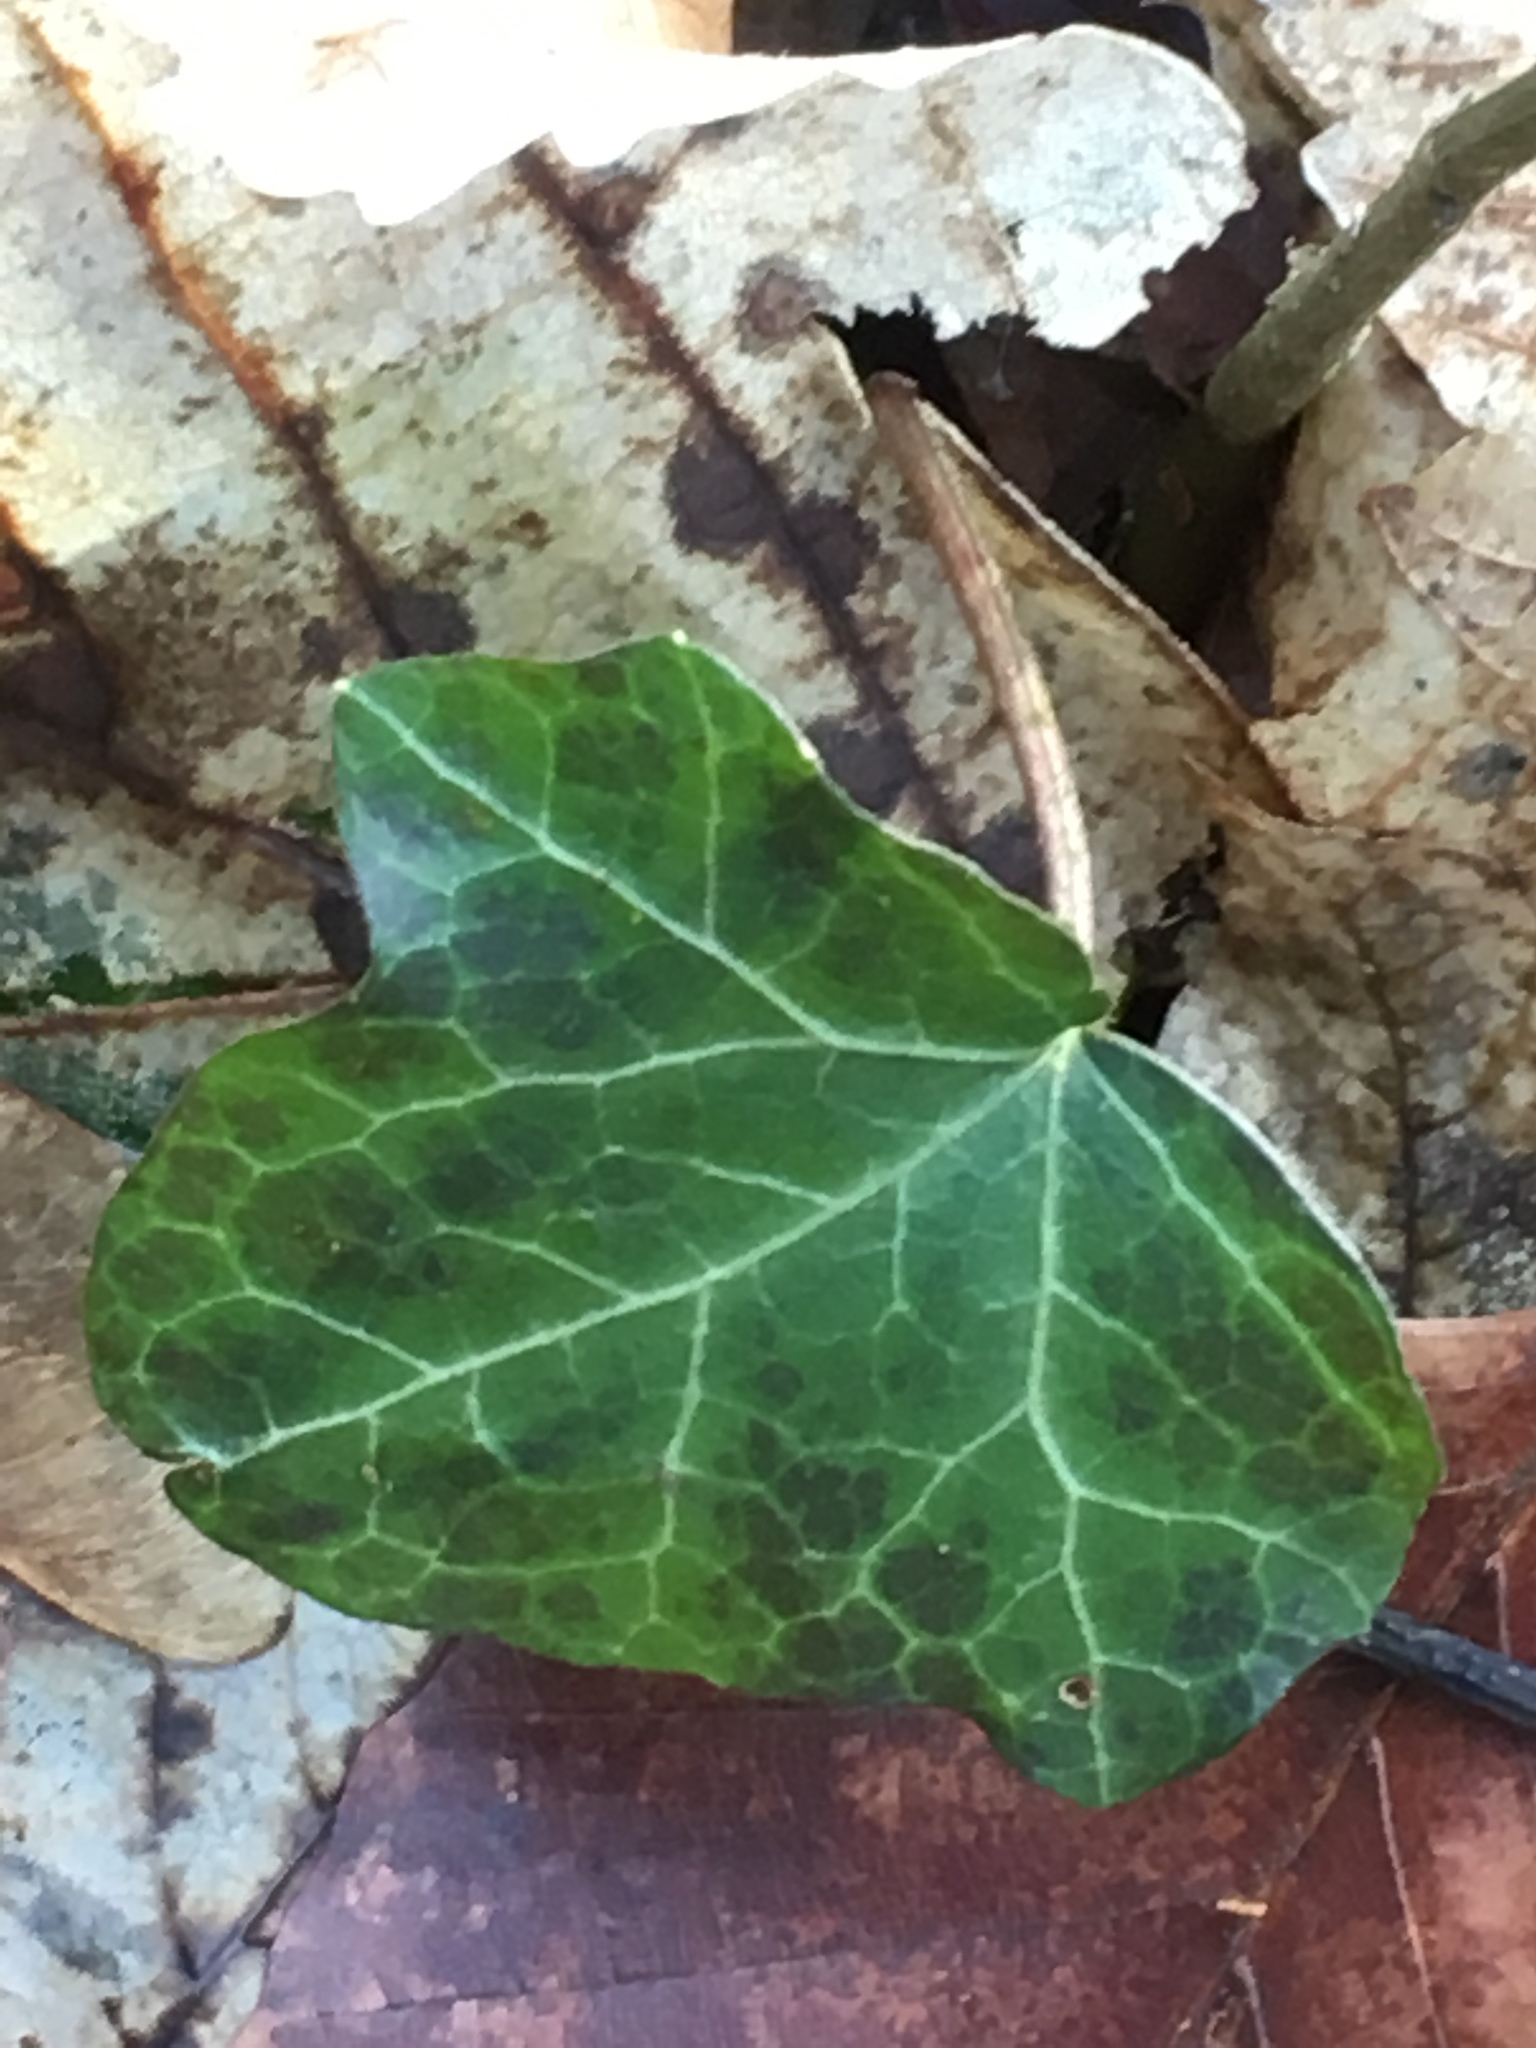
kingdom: Plantae
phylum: Tracheophyta
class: Magnoliopsida
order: Apiales
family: Araliaceae
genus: Hedera
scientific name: Hedera helix
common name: Ivy
